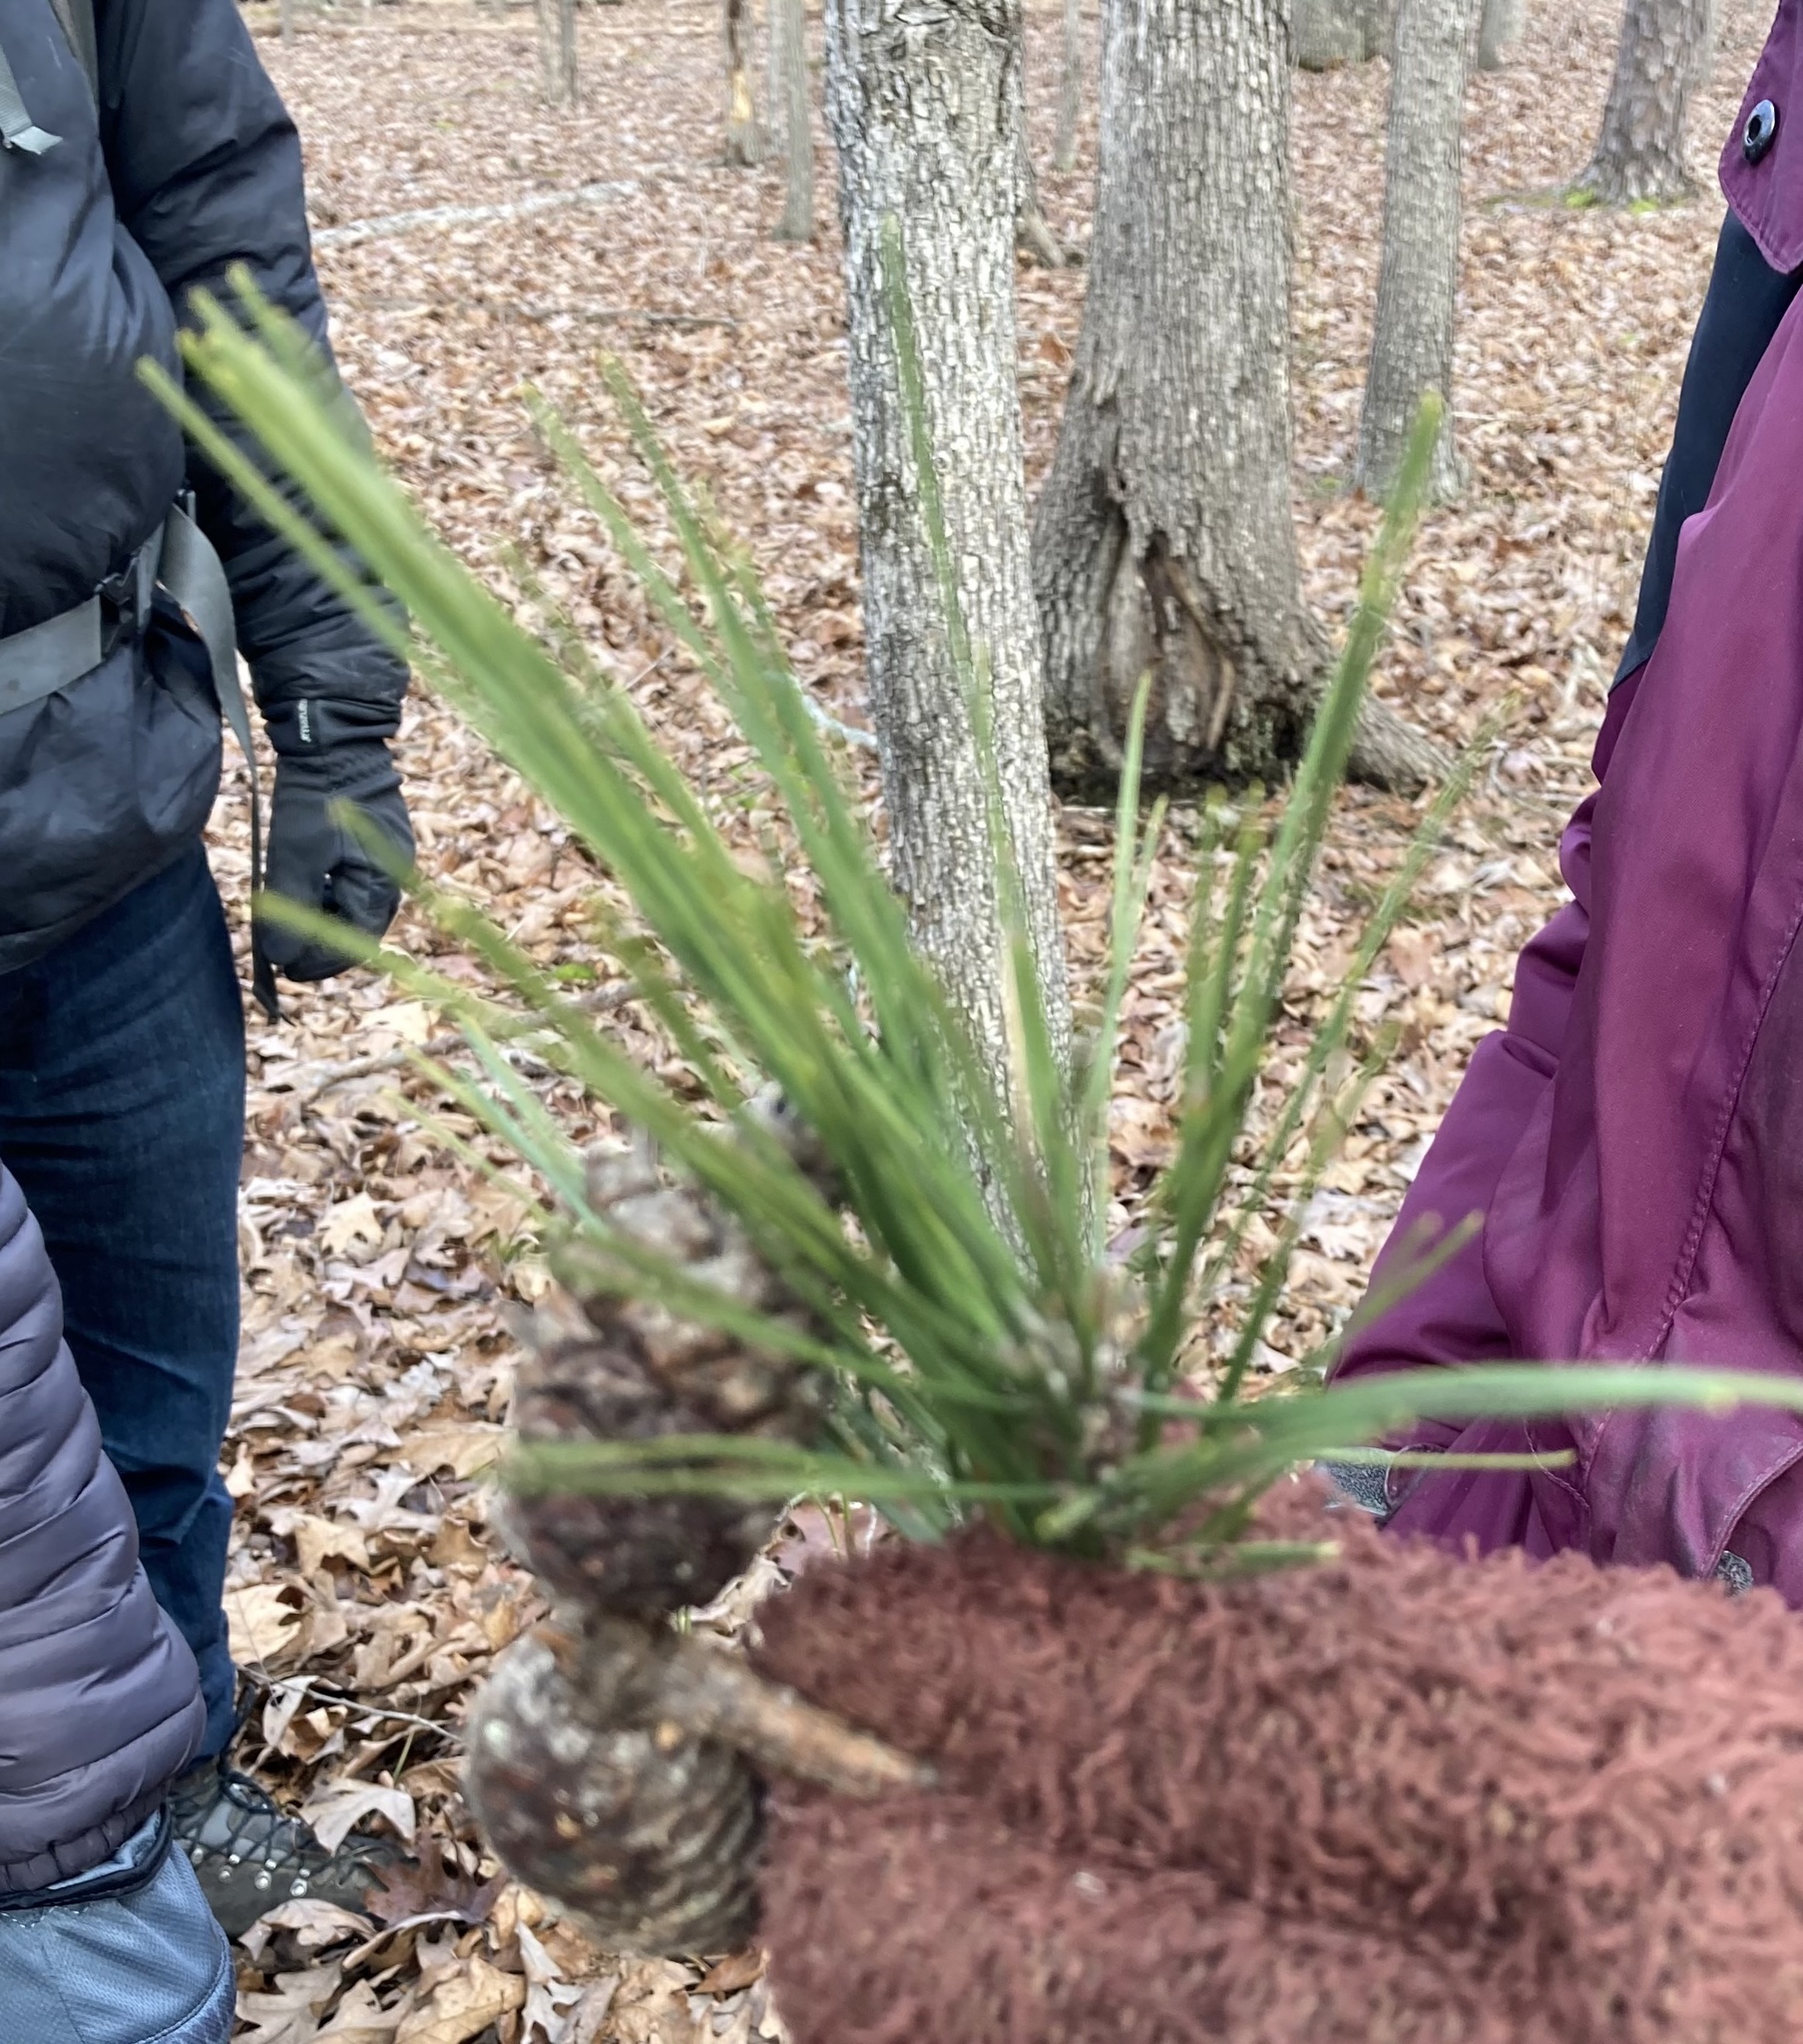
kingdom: Plantae
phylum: Tracheophyta
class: Pinopsida
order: Pinales
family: Pinaceae
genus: Pinus
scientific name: Pinus echinata
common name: Shortleaf pine
